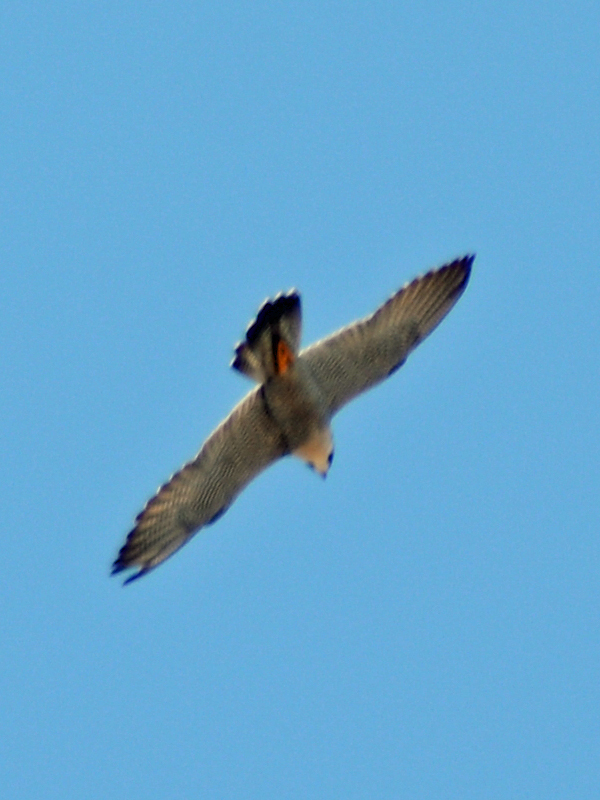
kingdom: Animalia
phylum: Chordata
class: Aves
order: Falconiformes
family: Falconidae
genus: Falco
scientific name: Falco peregrinus
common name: Peregrine falcon
